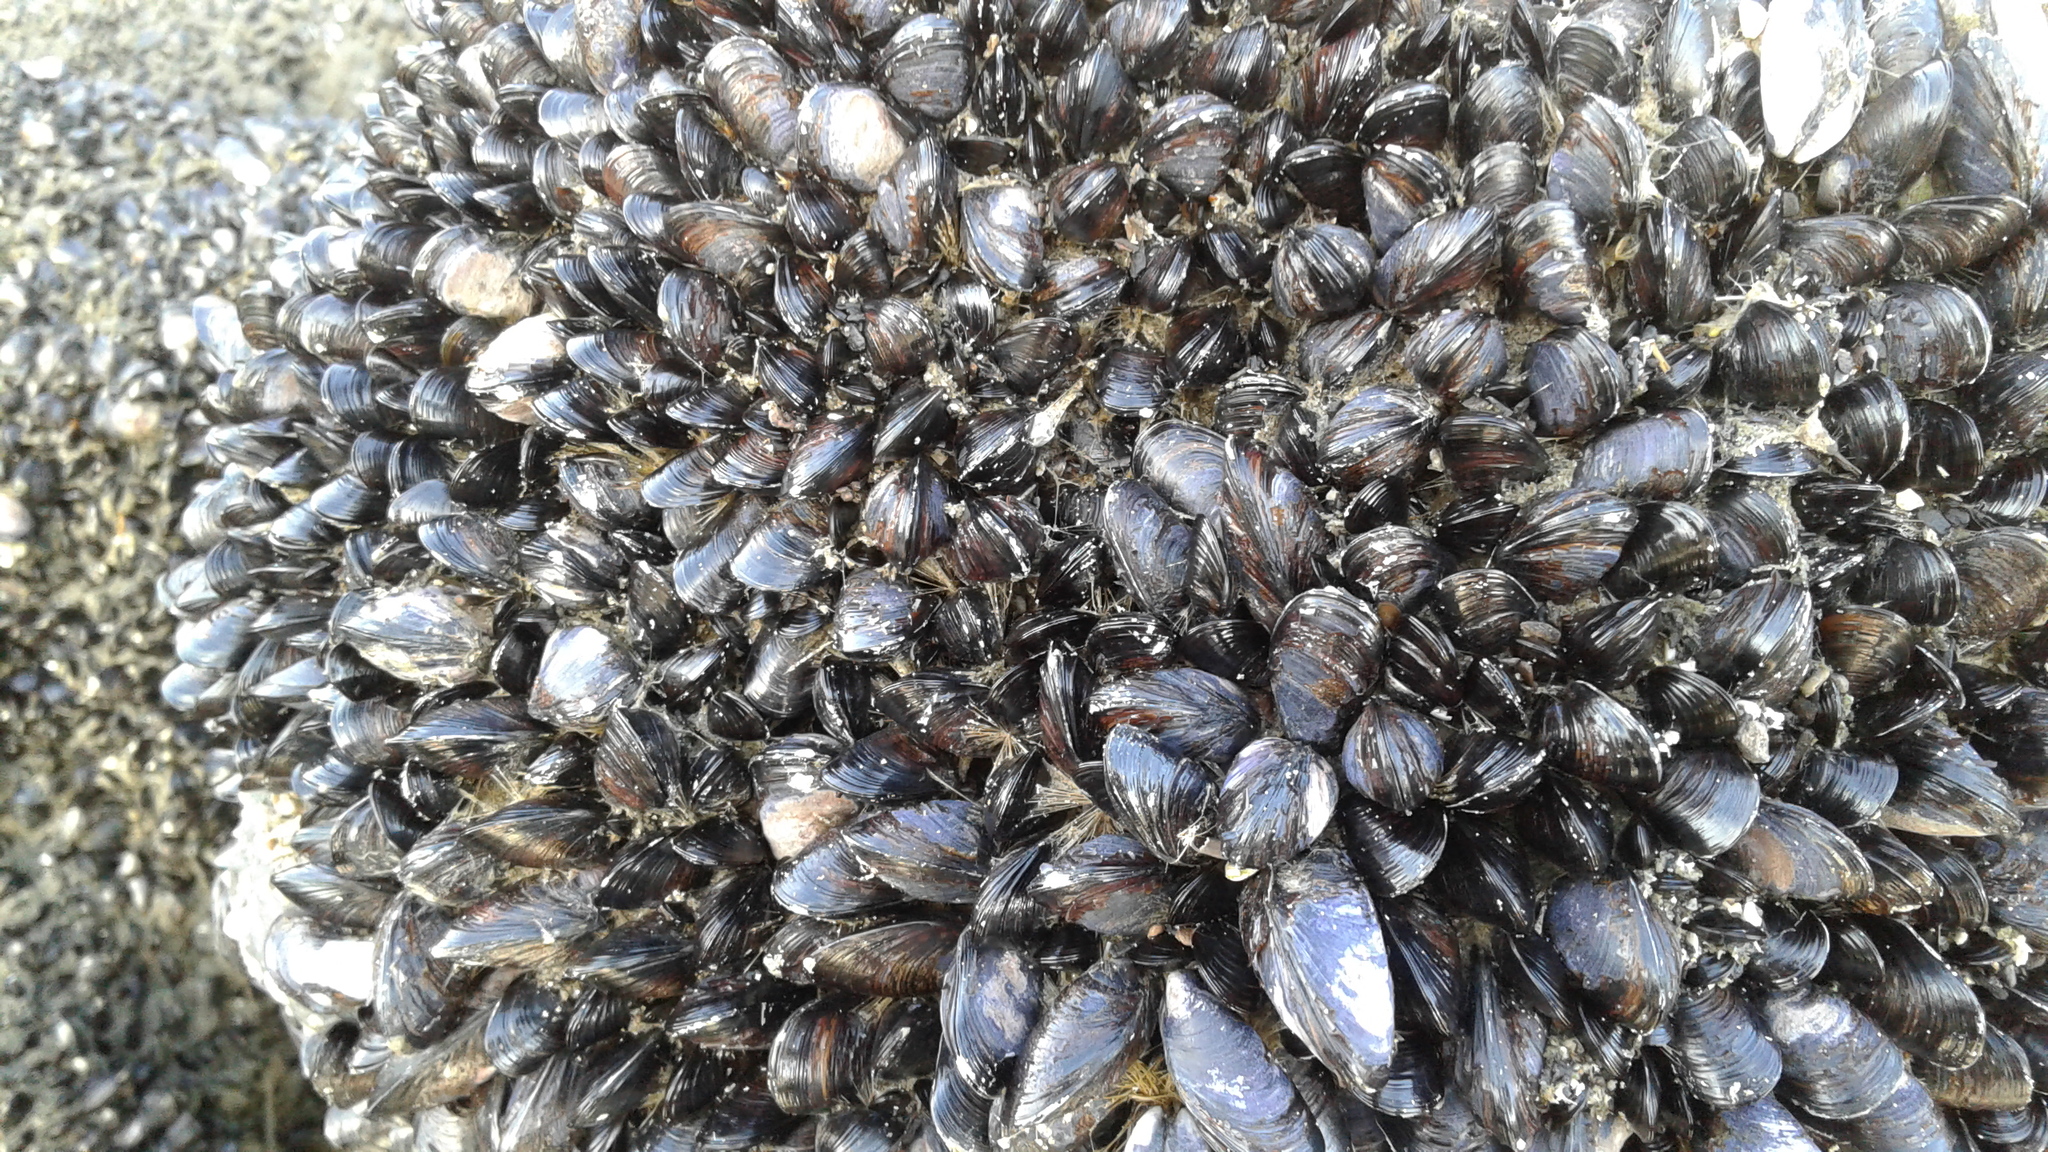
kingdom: Animalia
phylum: Mollusca
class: Bivalvia
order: Mytilida
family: Mytilidae
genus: Xenostrobus
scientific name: Xenostrobus neozelanicus
